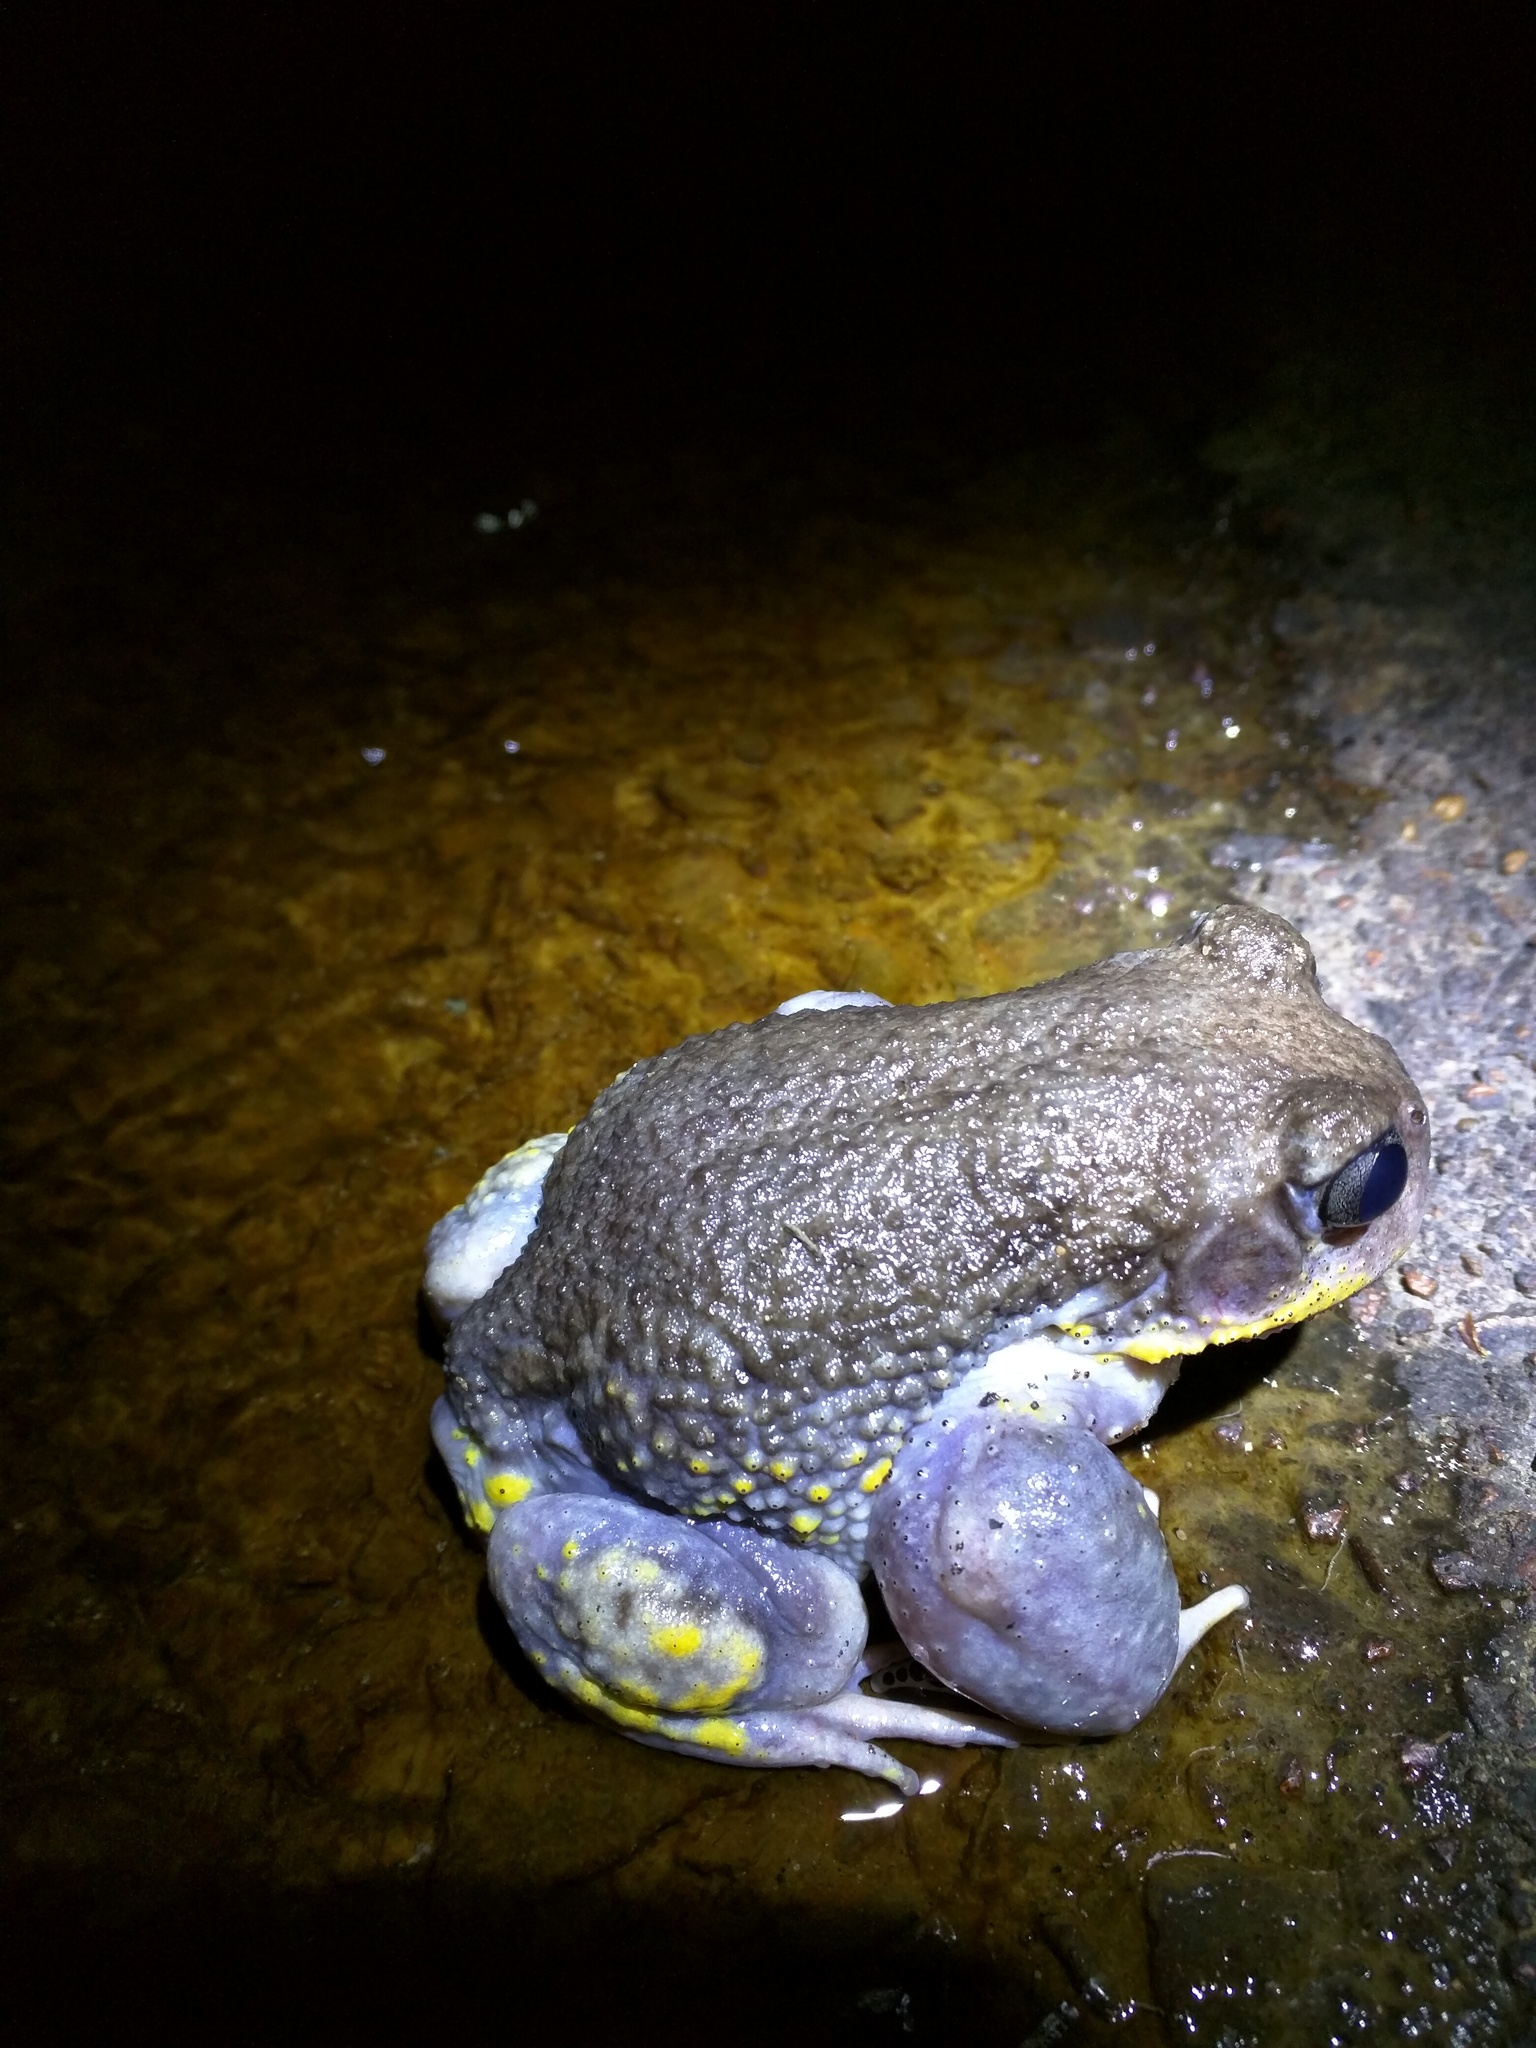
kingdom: Animalia
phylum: Chordata
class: Amphibia
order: Anura
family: Limnodynastidae
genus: Heleioporus
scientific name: Heleioporus australiacus
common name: Eastern owl frog
